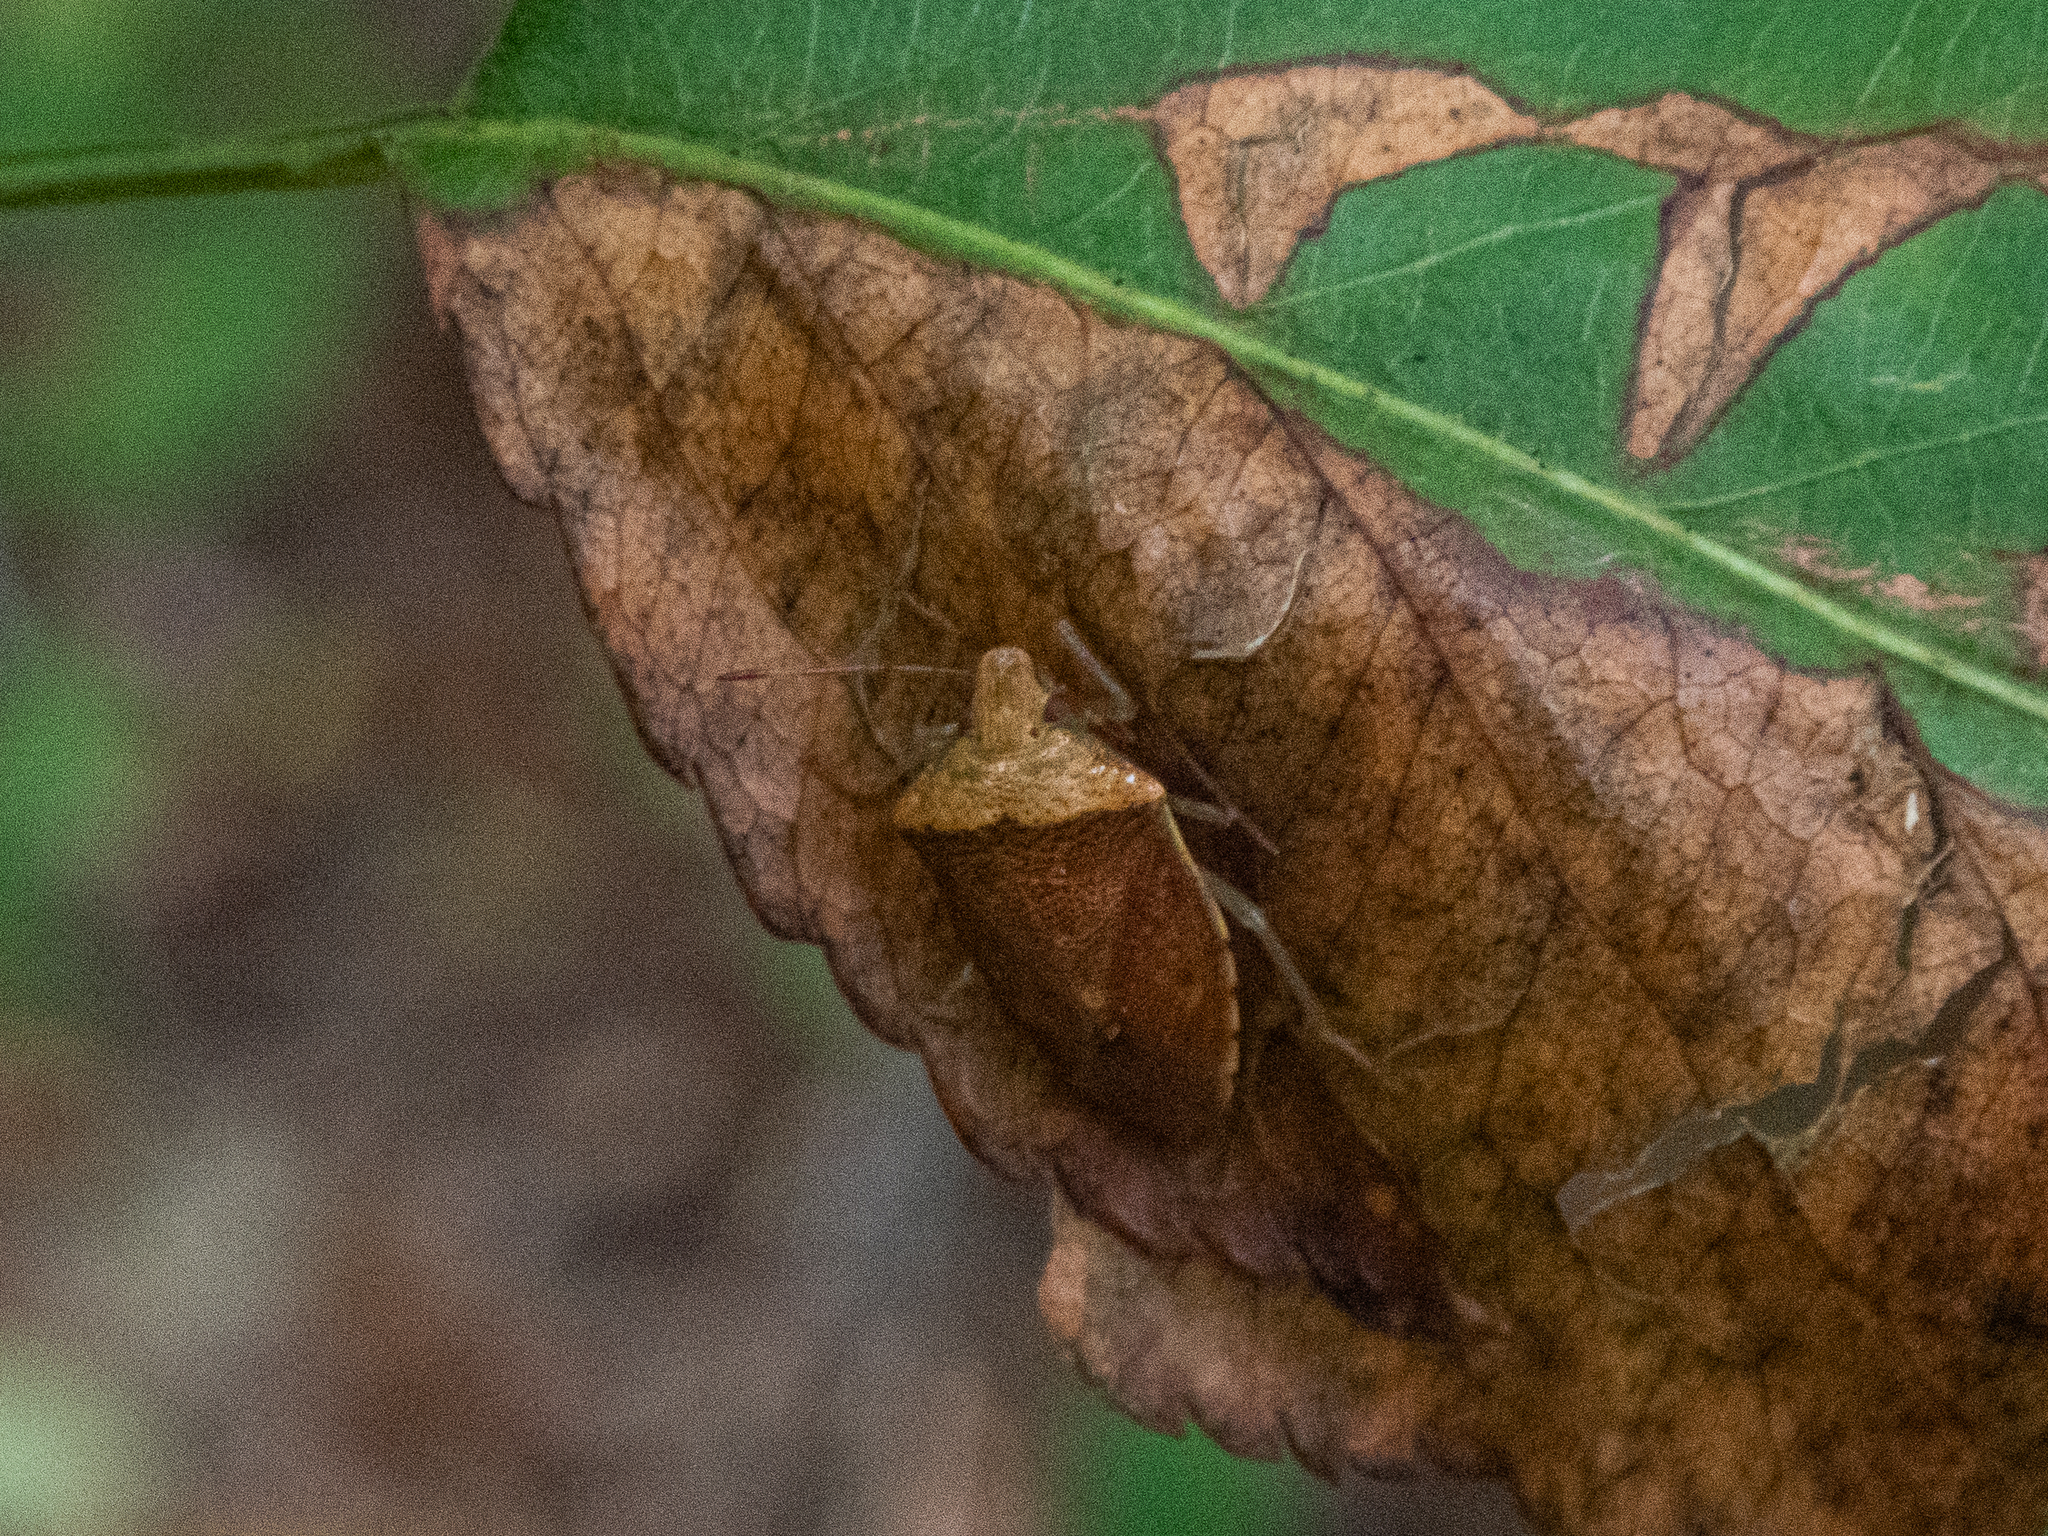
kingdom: Animalia
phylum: Arthropoda
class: Insecta
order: Hemiptera
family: Pentatomidae
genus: Banasa
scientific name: Banasa calva
